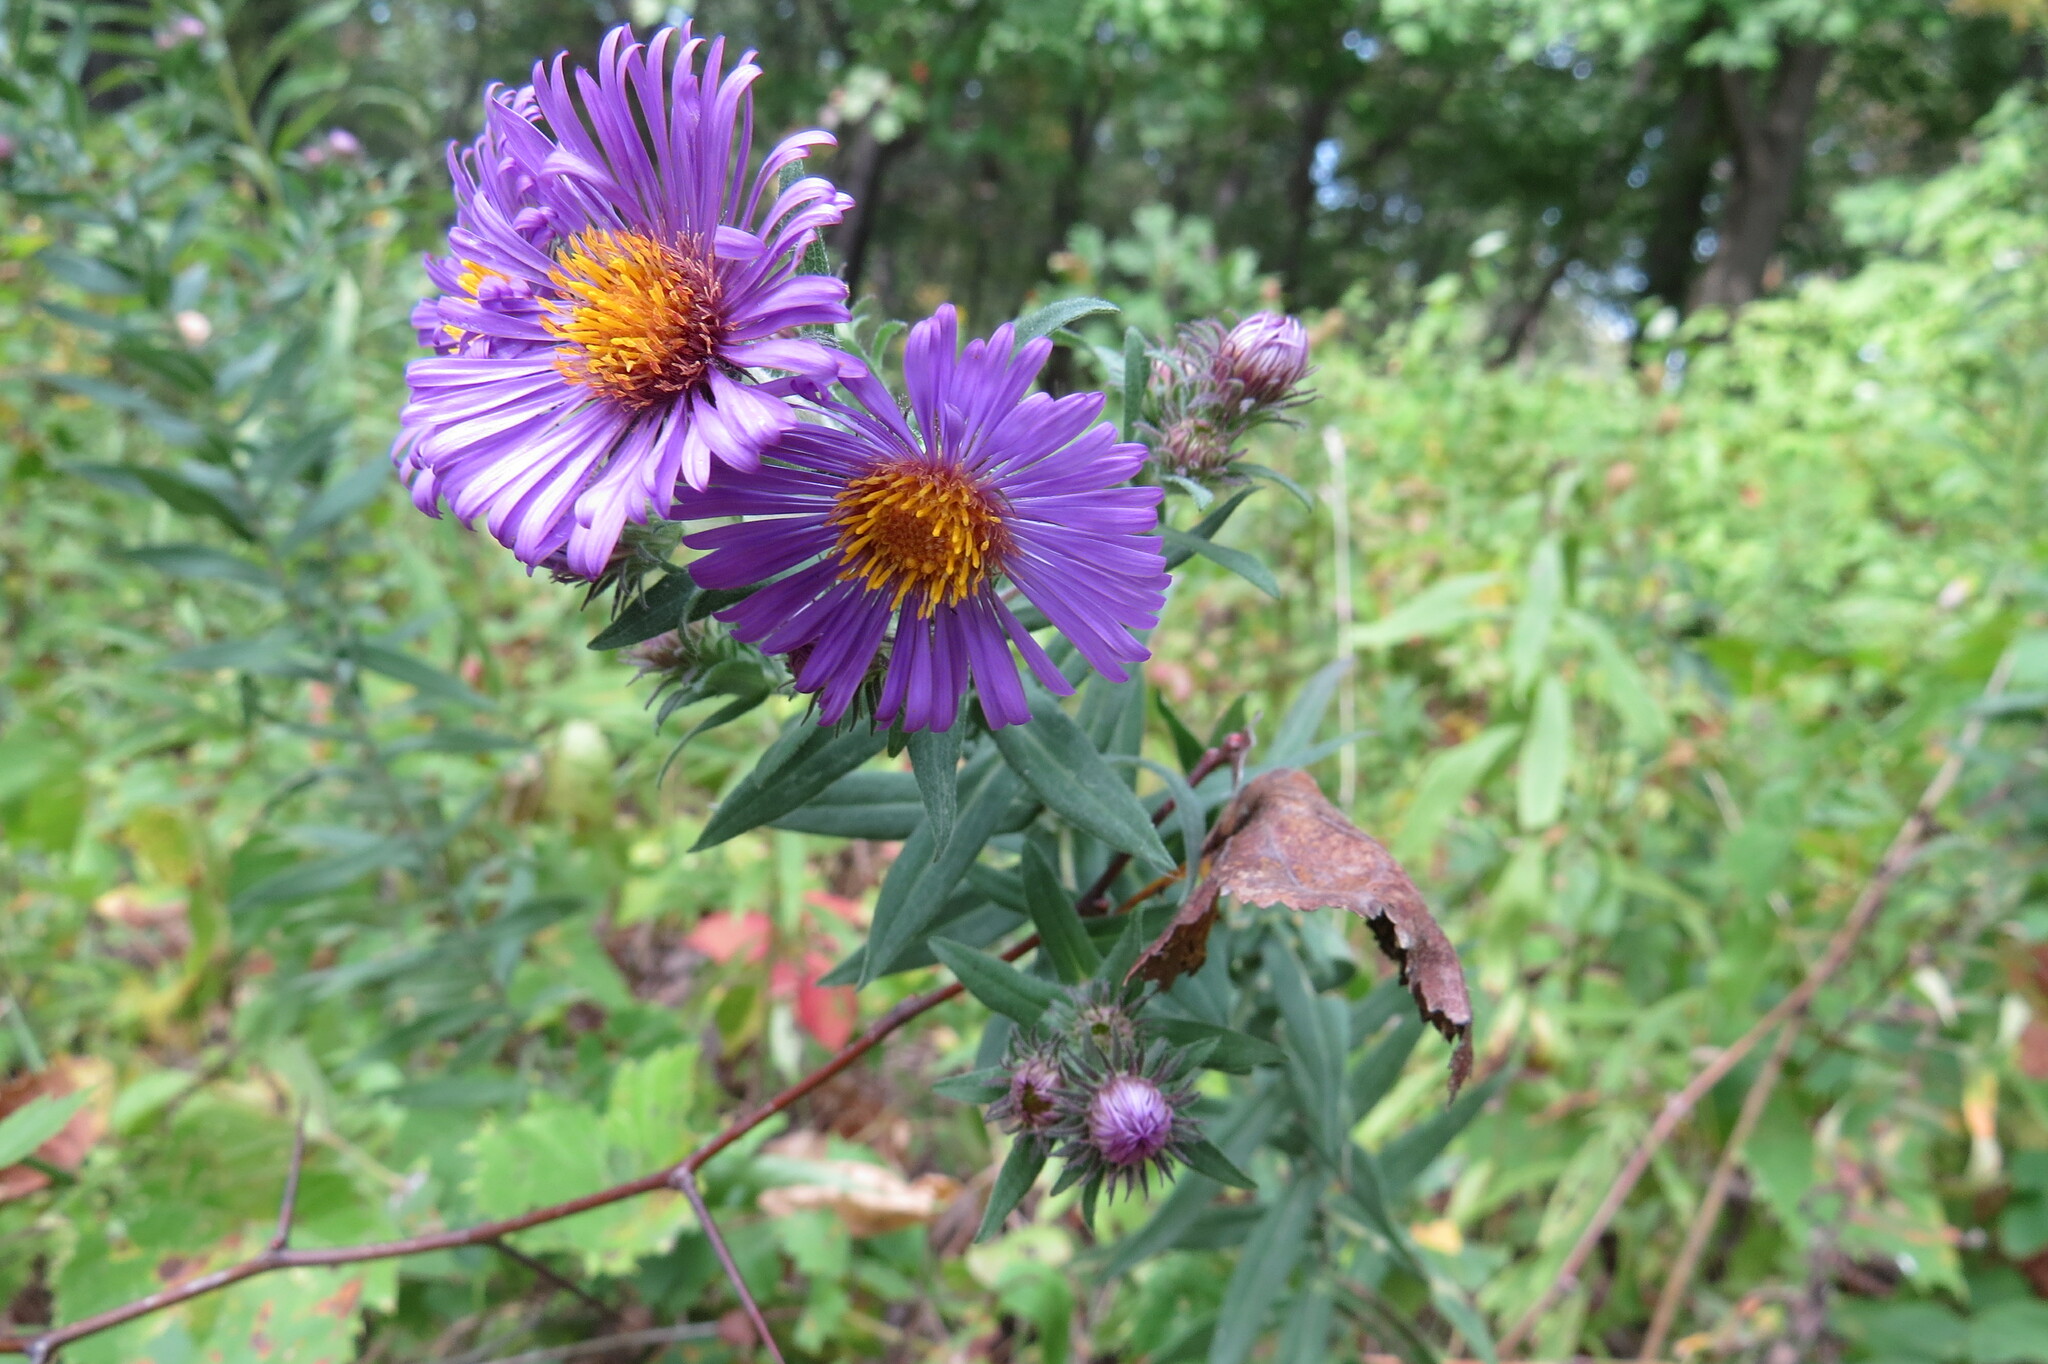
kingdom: Plantae
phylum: Tracheophyta
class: Magnoliopsida
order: Asterales
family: Asteraceae
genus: Symphyotrichum
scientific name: Symphyotrichum novae-angliae
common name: Michaelmas daisy
